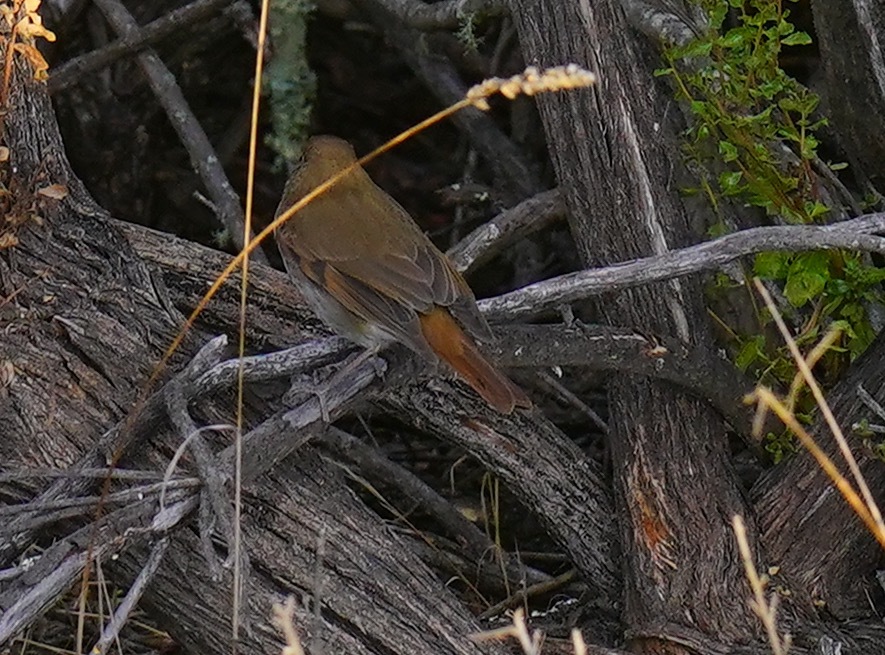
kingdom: Animalia
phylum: Chordata
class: Aves
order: Passeriformes
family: Turdidae
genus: Catharus
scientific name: Catharus guttatus
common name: Hermit thrush
